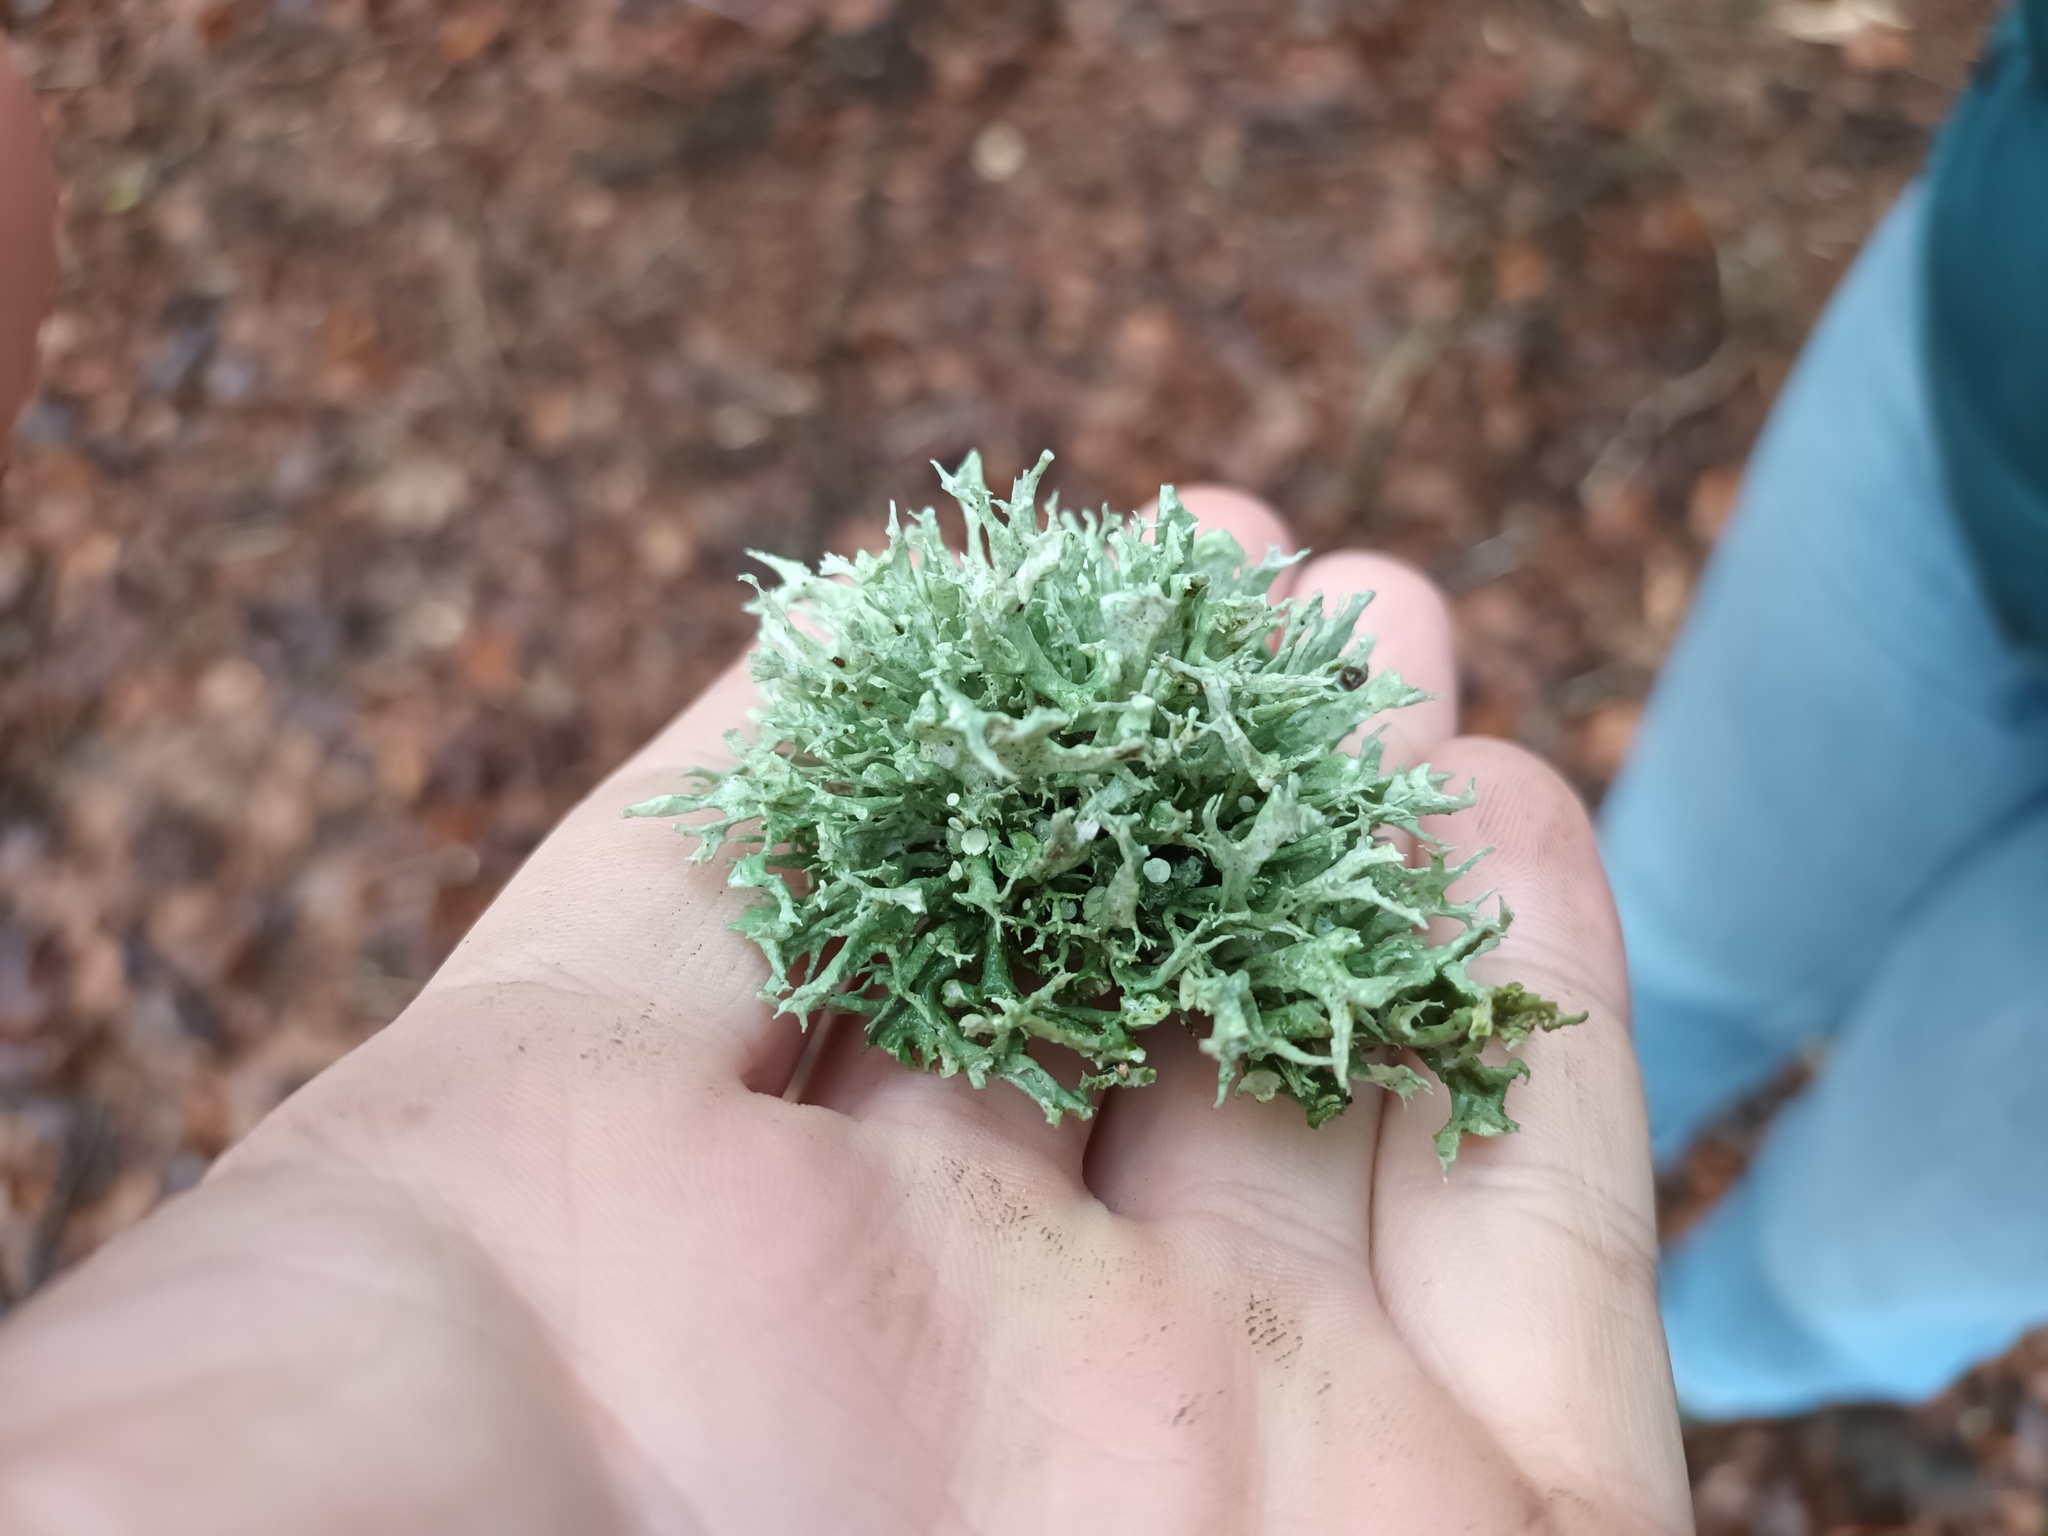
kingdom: Fungi
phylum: Ascomycota
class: Lecanoromycetes
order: Lecanorales
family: Ramalinaceae
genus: Ramalina
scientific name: Ramalina fastigiata
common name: Dotted ribbon lichen
